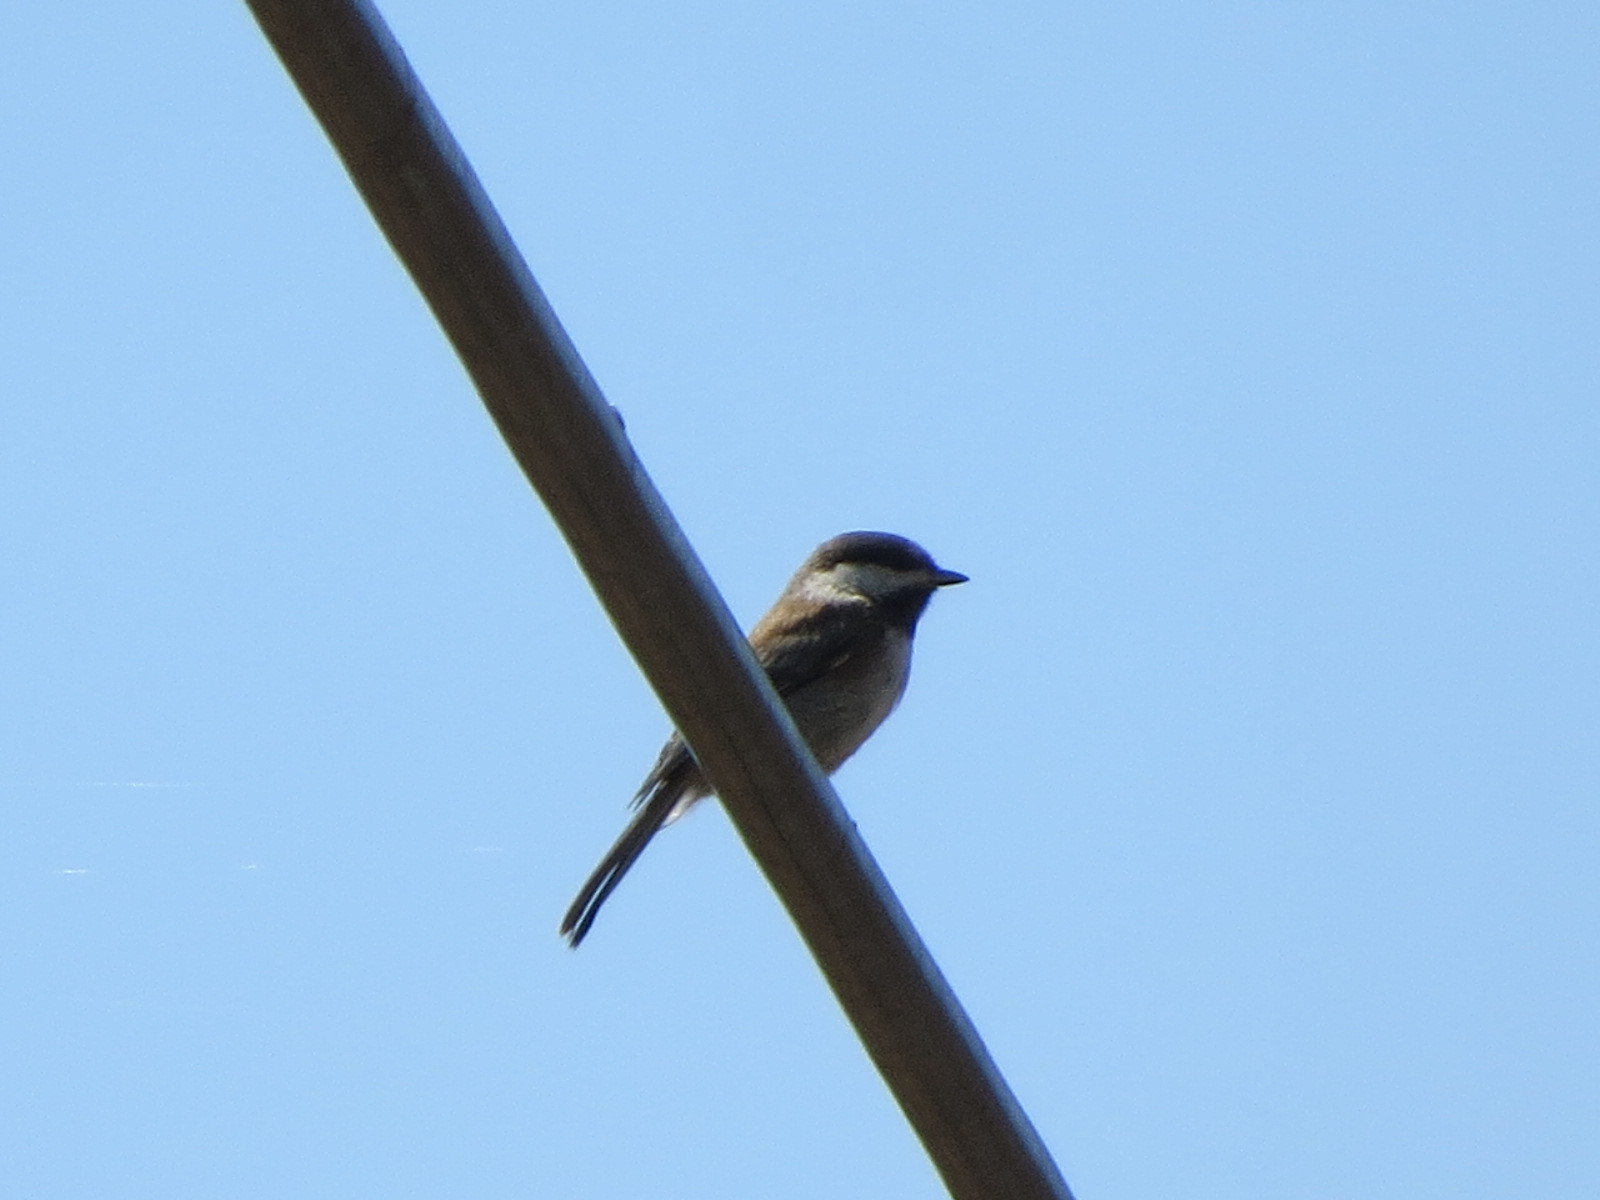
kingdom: Animalia
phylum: Chordata
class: Aves
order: Passeriformes
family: Paridae
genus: Poecile
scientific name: Poecile rufescens
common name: Chestnut-backed chickadee
